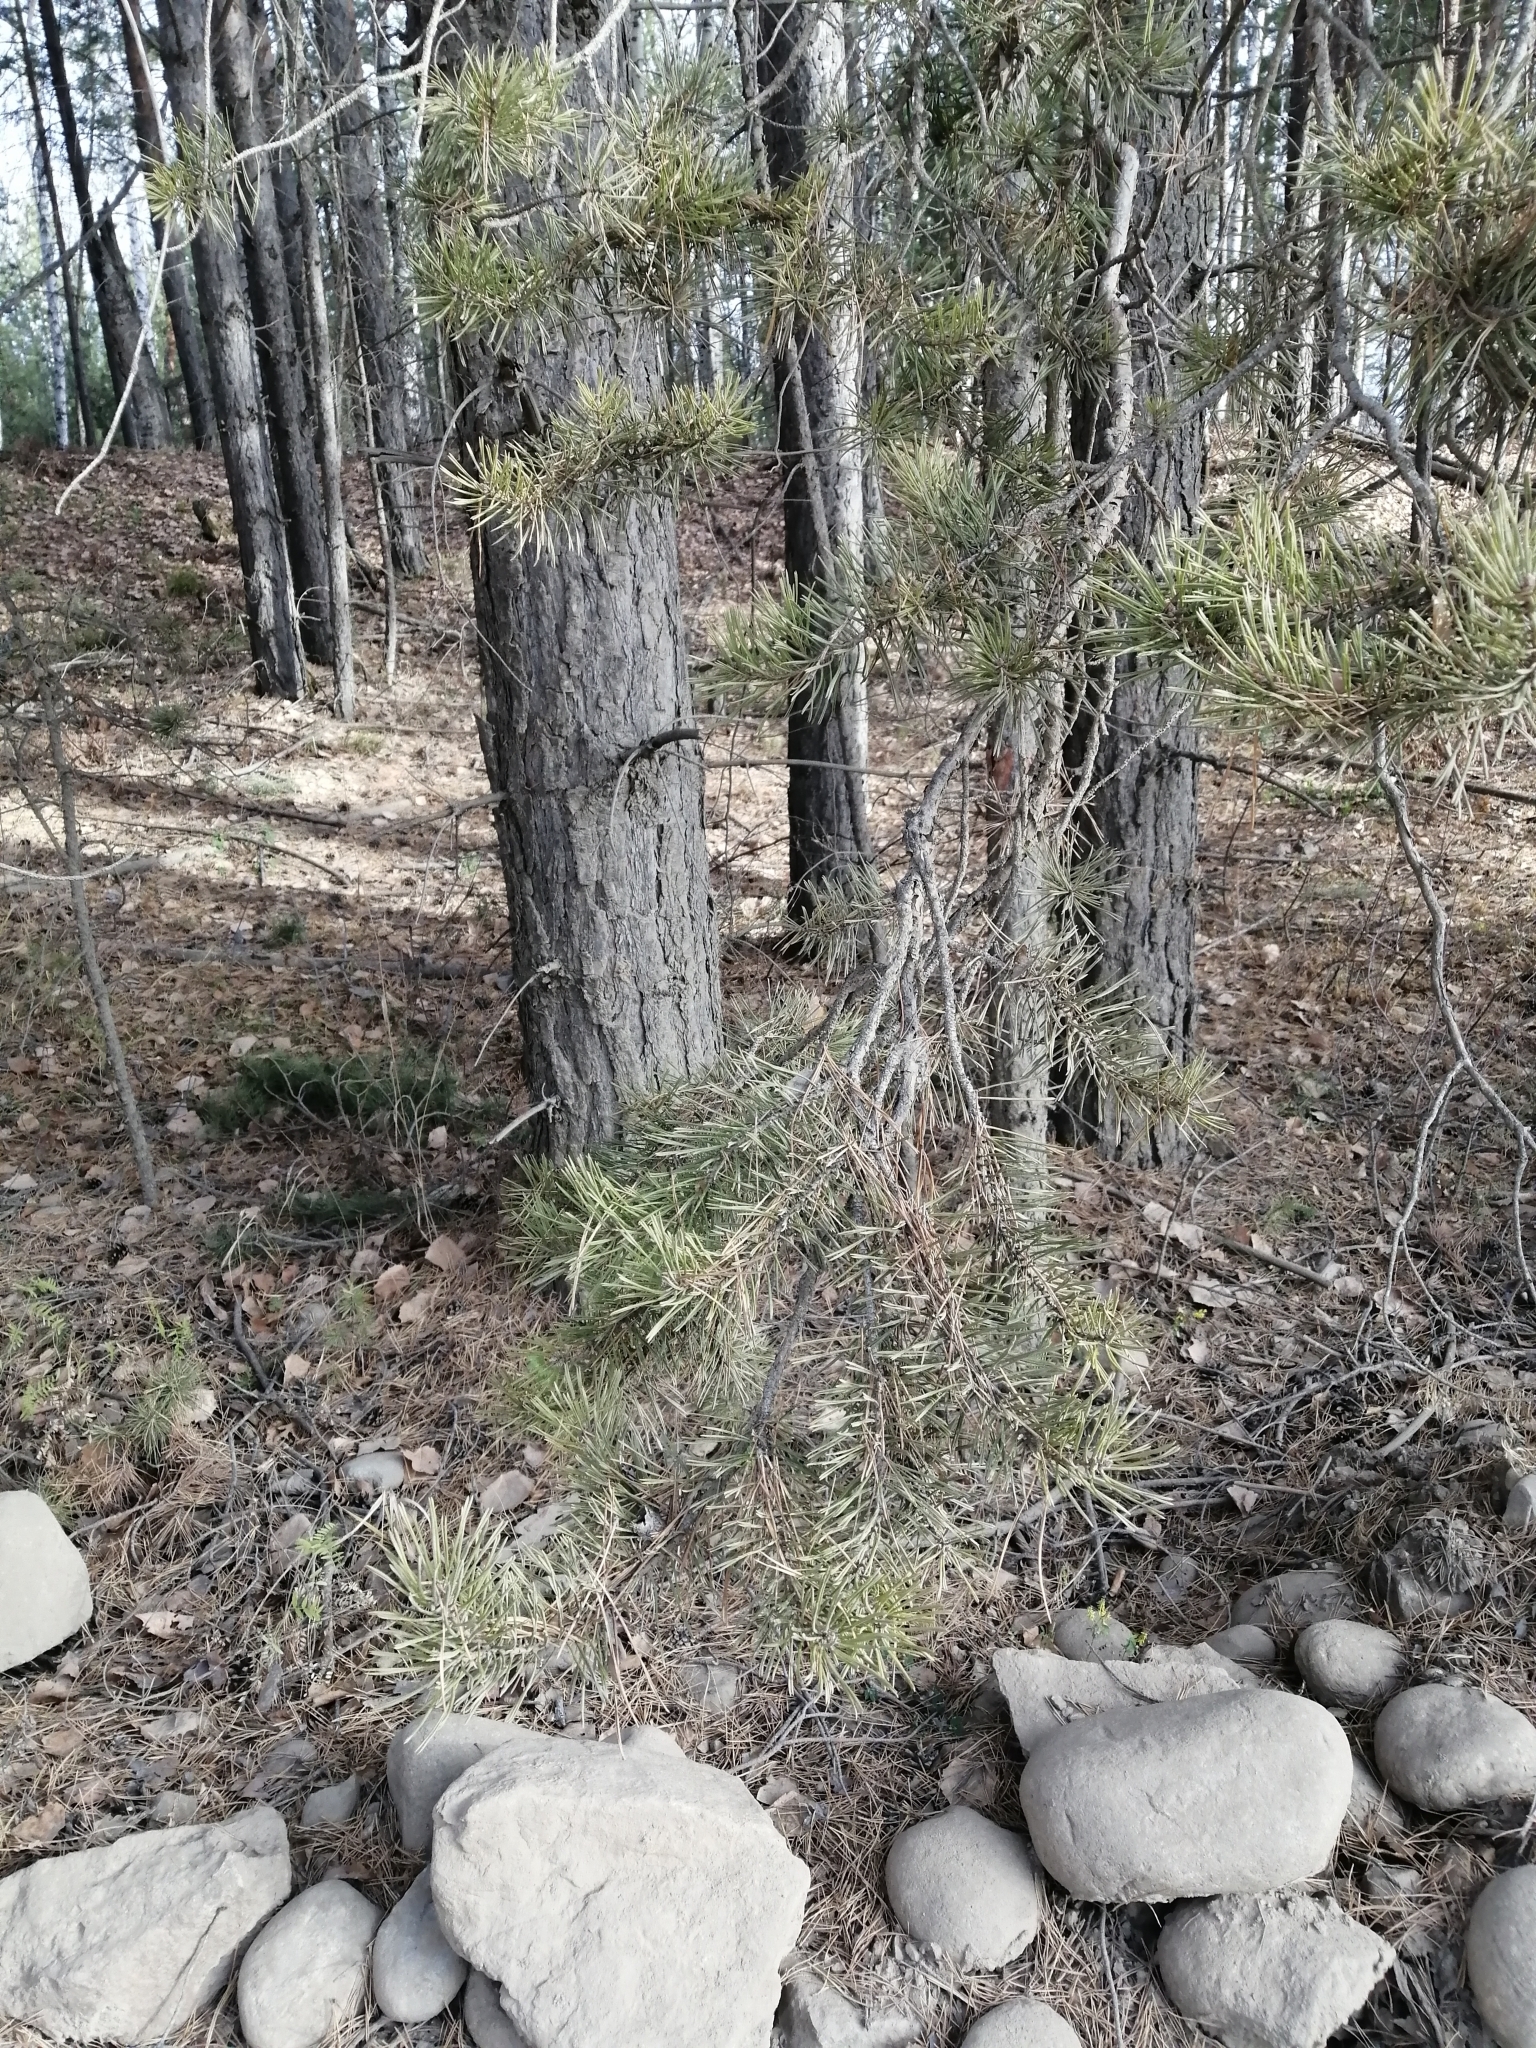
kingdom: Plantae
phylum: Tracheophyta
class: Pinopsida
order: Pinales
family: Pinaceae
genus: Pinus
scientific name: Pinus sylvestris
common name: Scots pine
